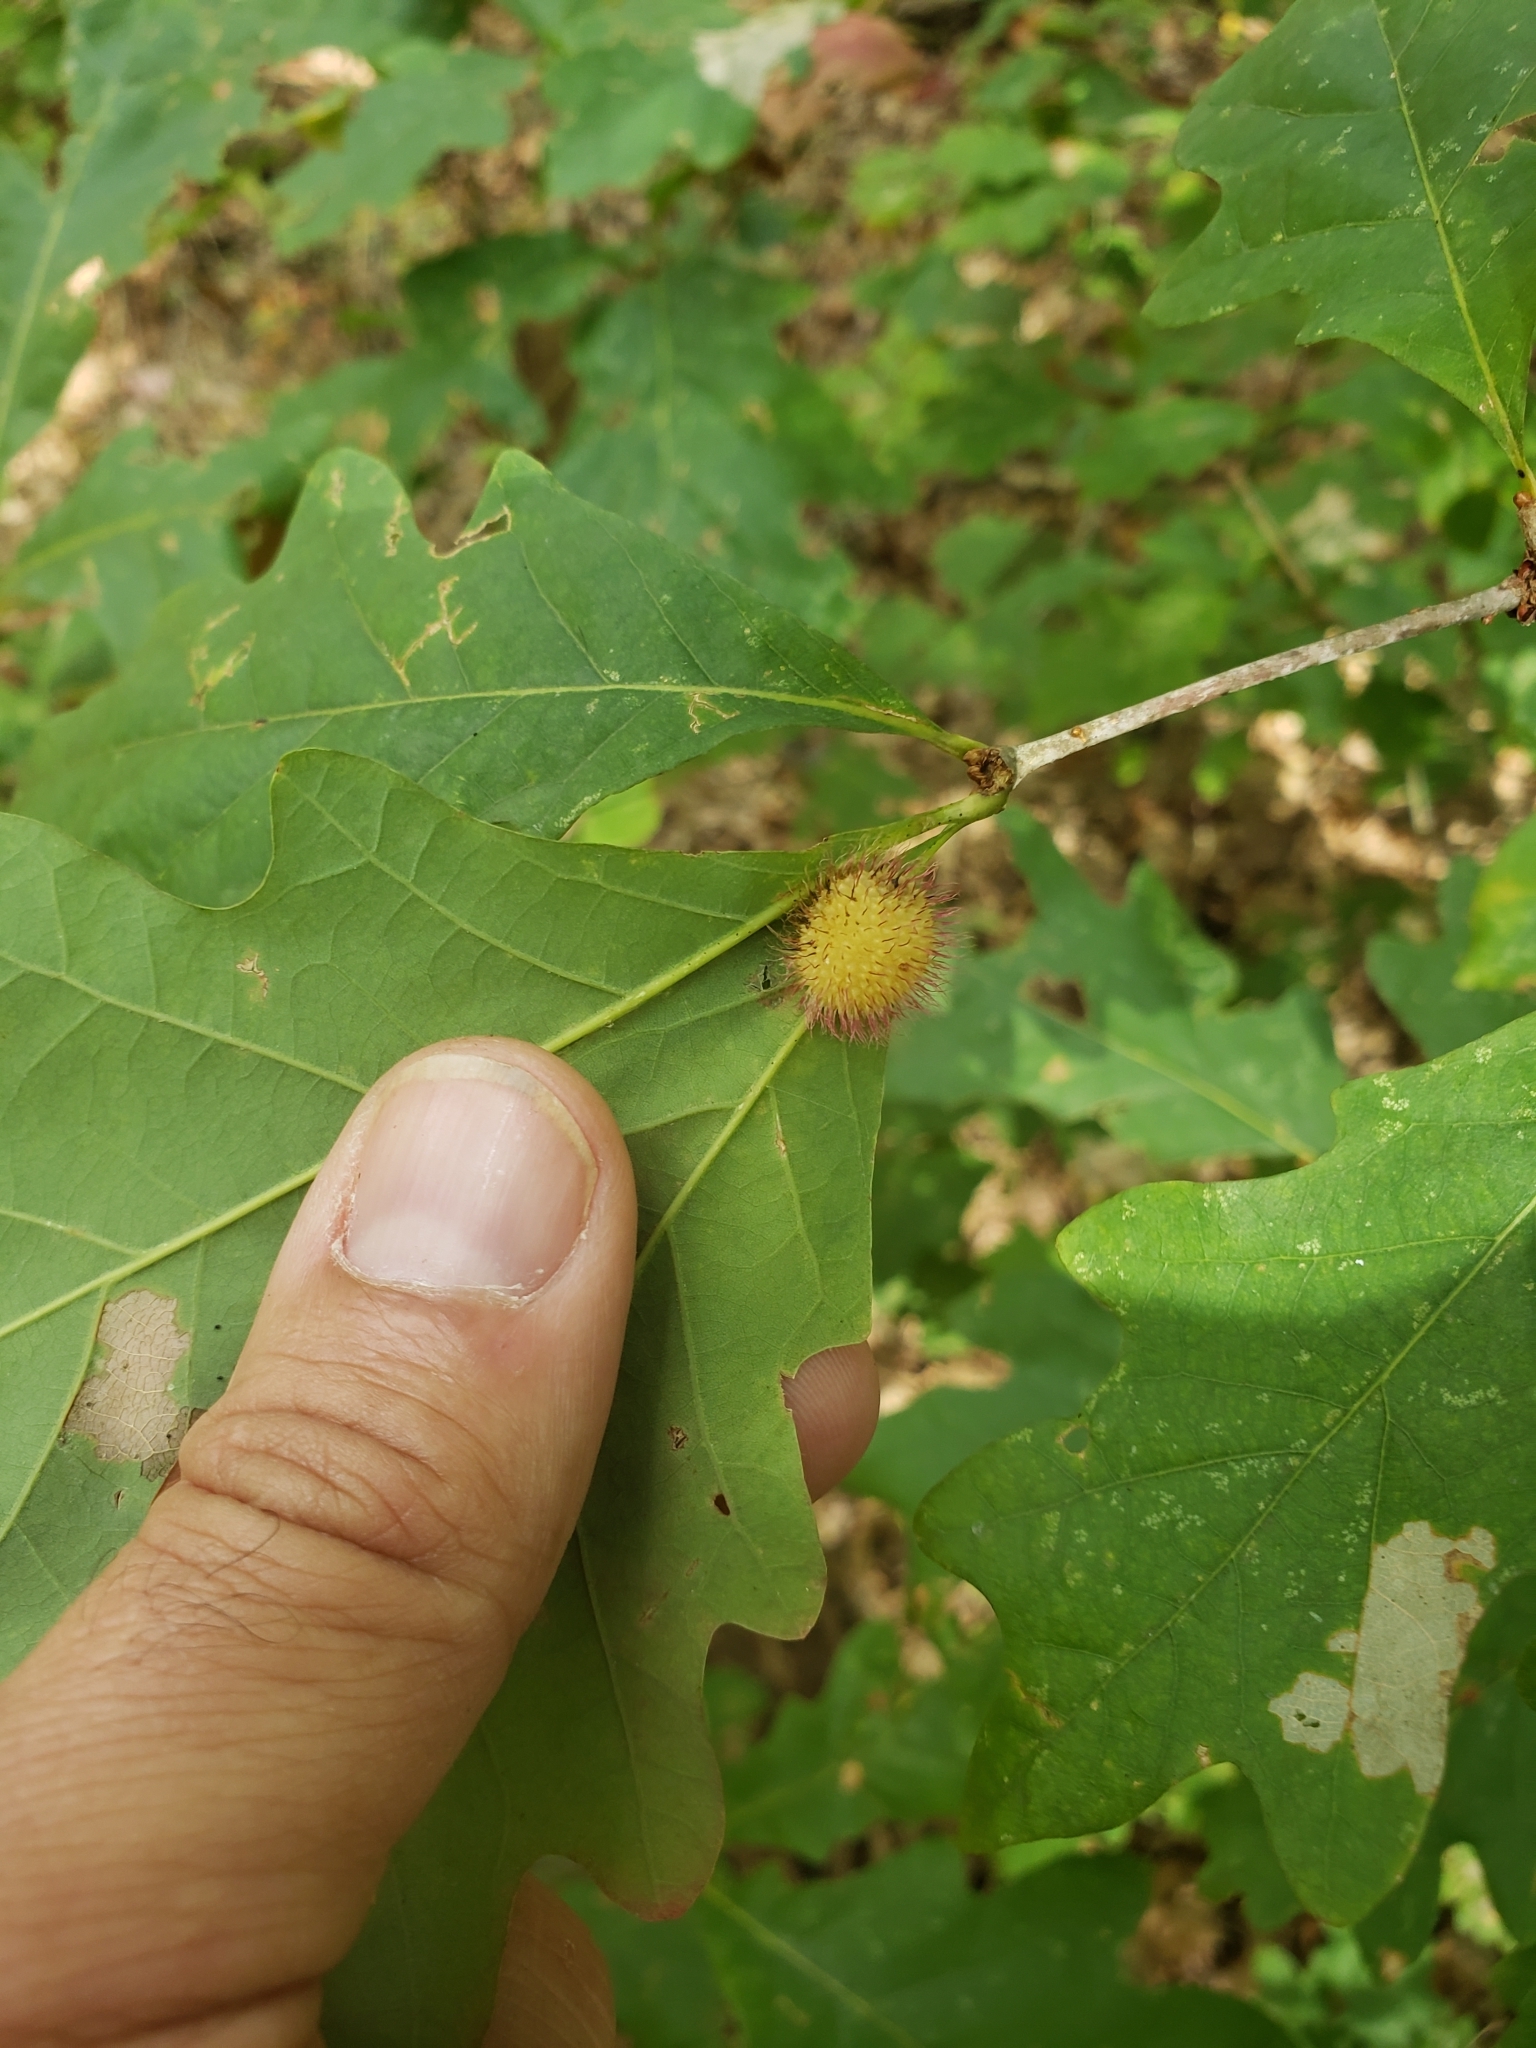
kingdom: Animalia
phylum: Arthropoda
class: Insecta
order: Hymenoptera
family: Cynipidae
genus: Acraspis
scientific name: Acraspis erinacei
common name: Hedgehog gall wasp
